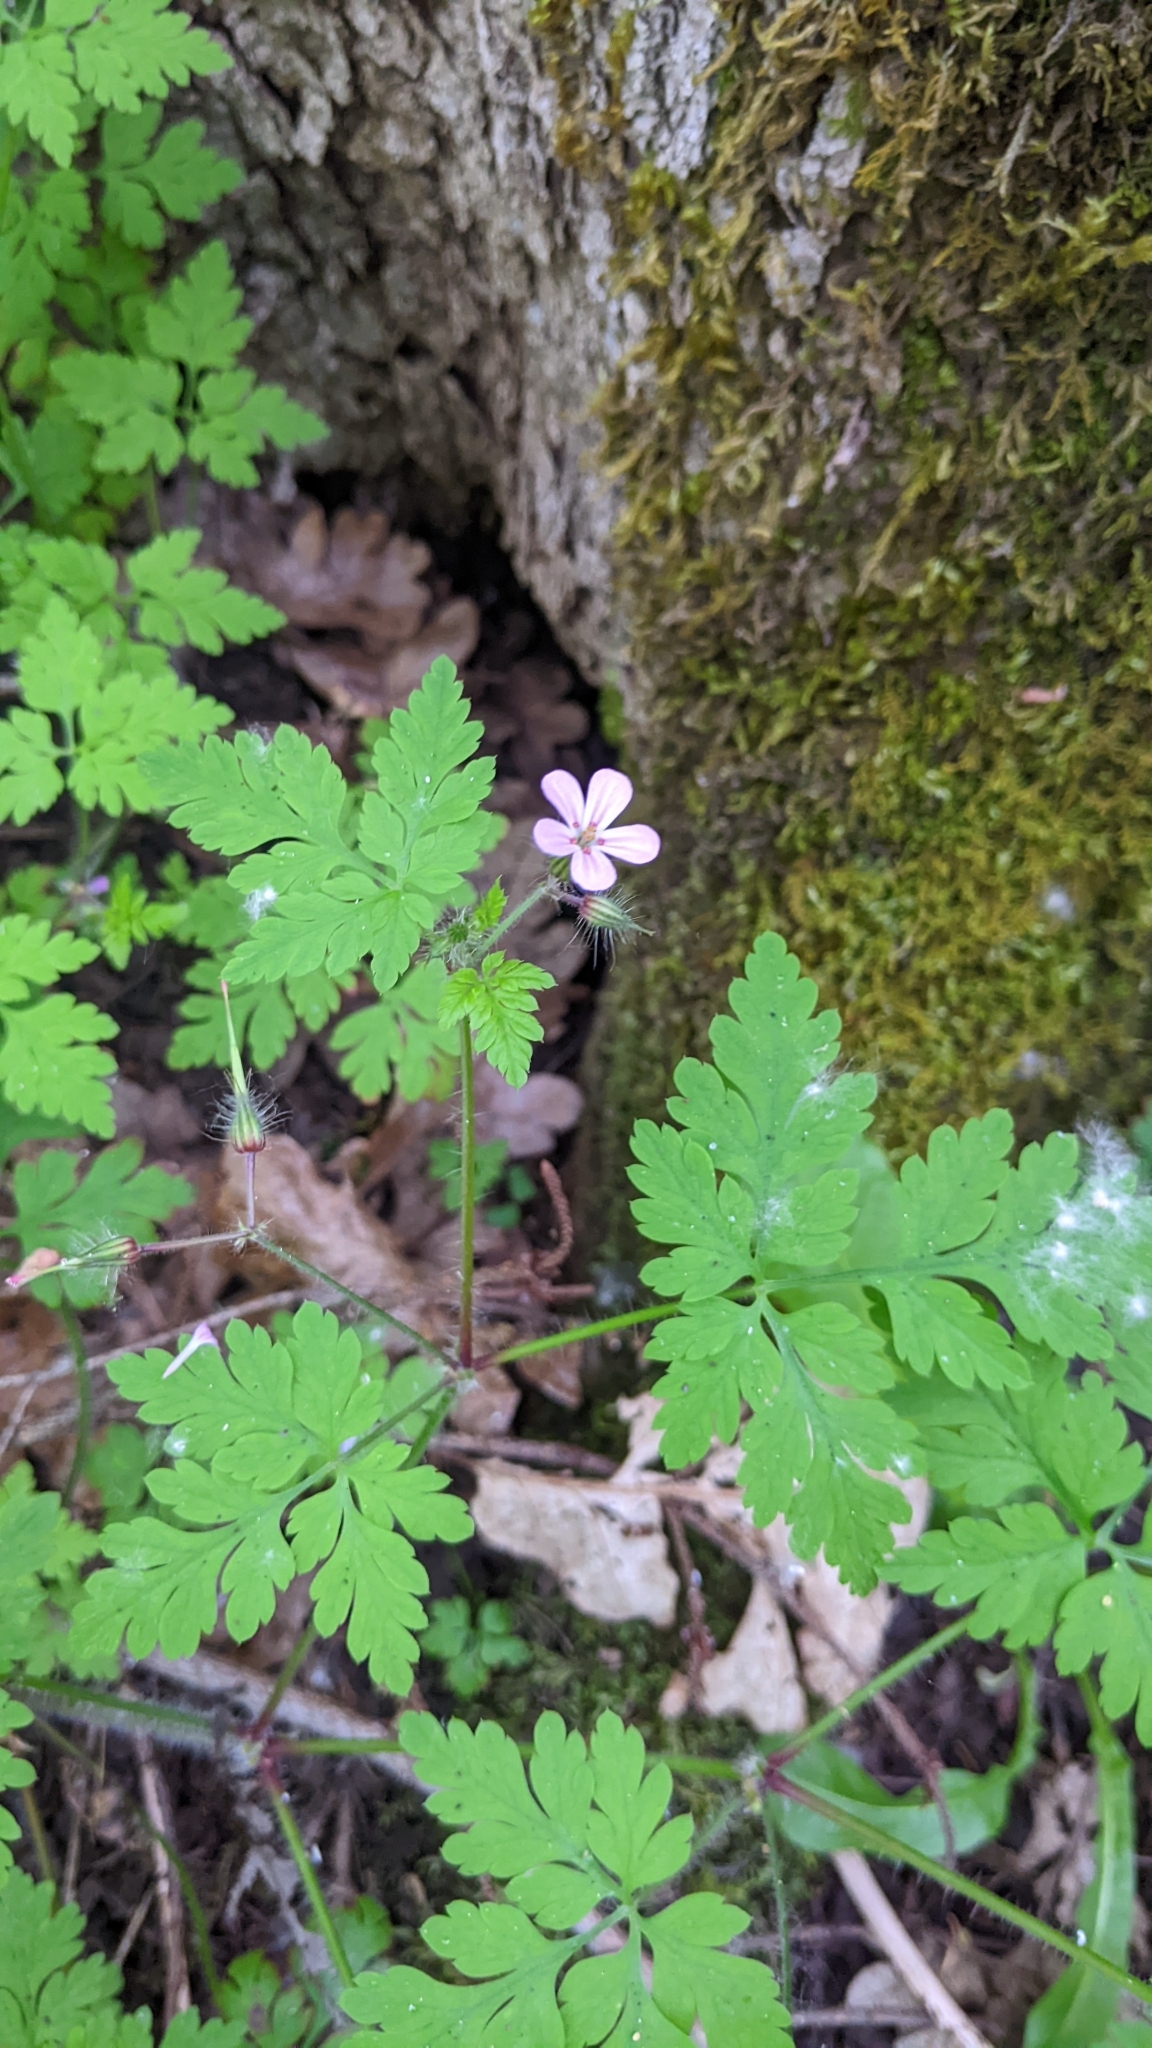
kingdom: Plantae
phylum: Tracheophyta
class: Magnoliopsida
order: Geraniales
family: Geraniaceae
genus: Geranium
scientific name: Geranium robertianum
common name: Herb-robert
